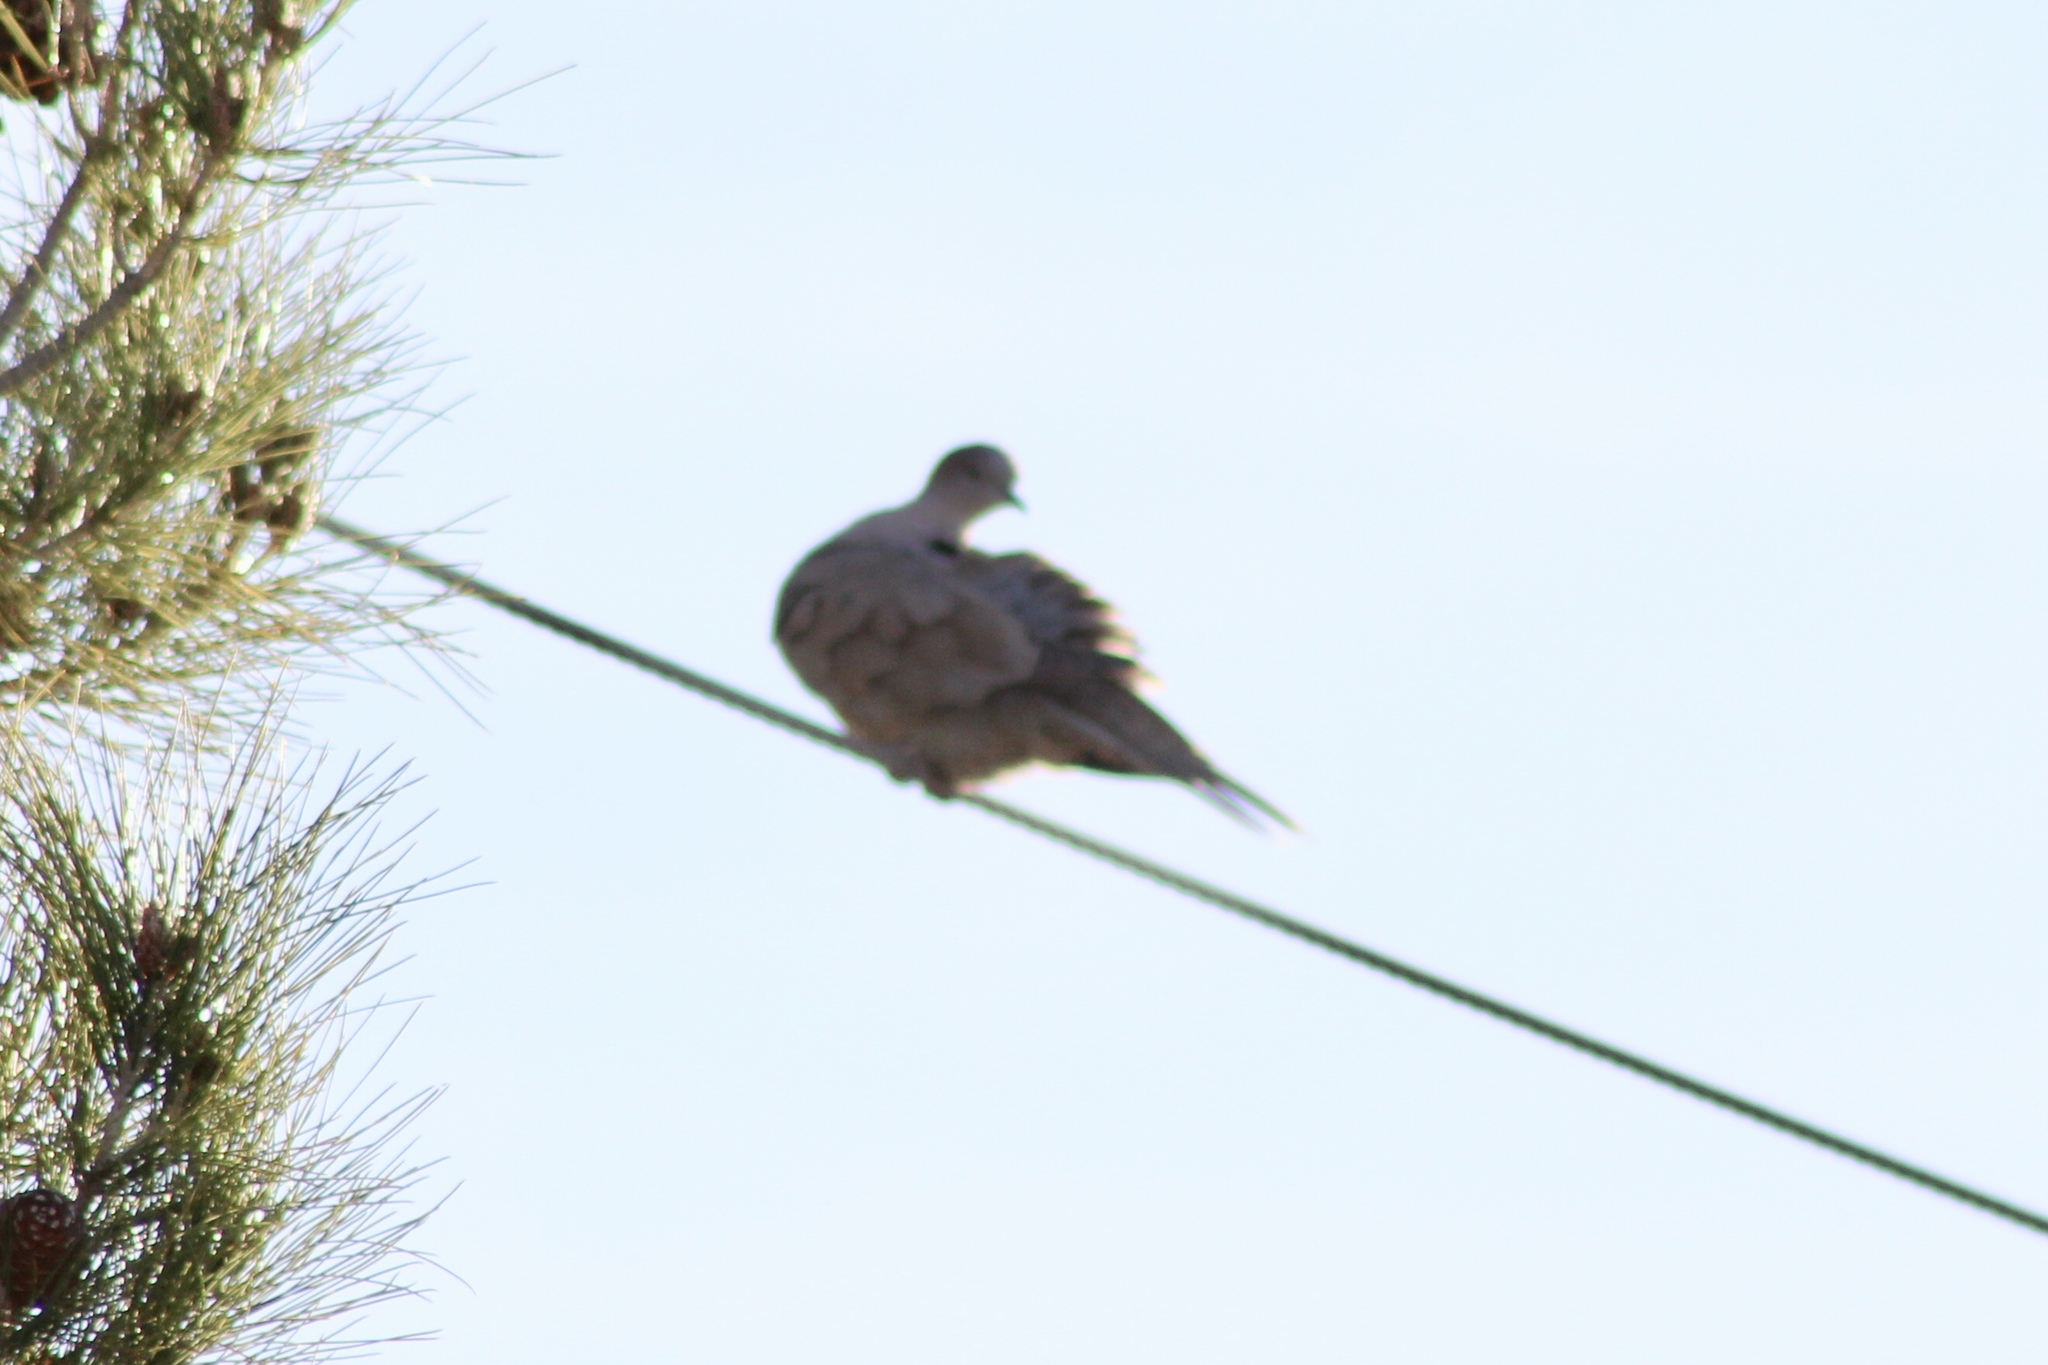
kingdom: Animalia
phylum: Chordata
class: Aves
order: Columbiformes
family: Columbidae
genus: Zenaida
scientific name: Zenaida macroura
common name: Mourning dove
